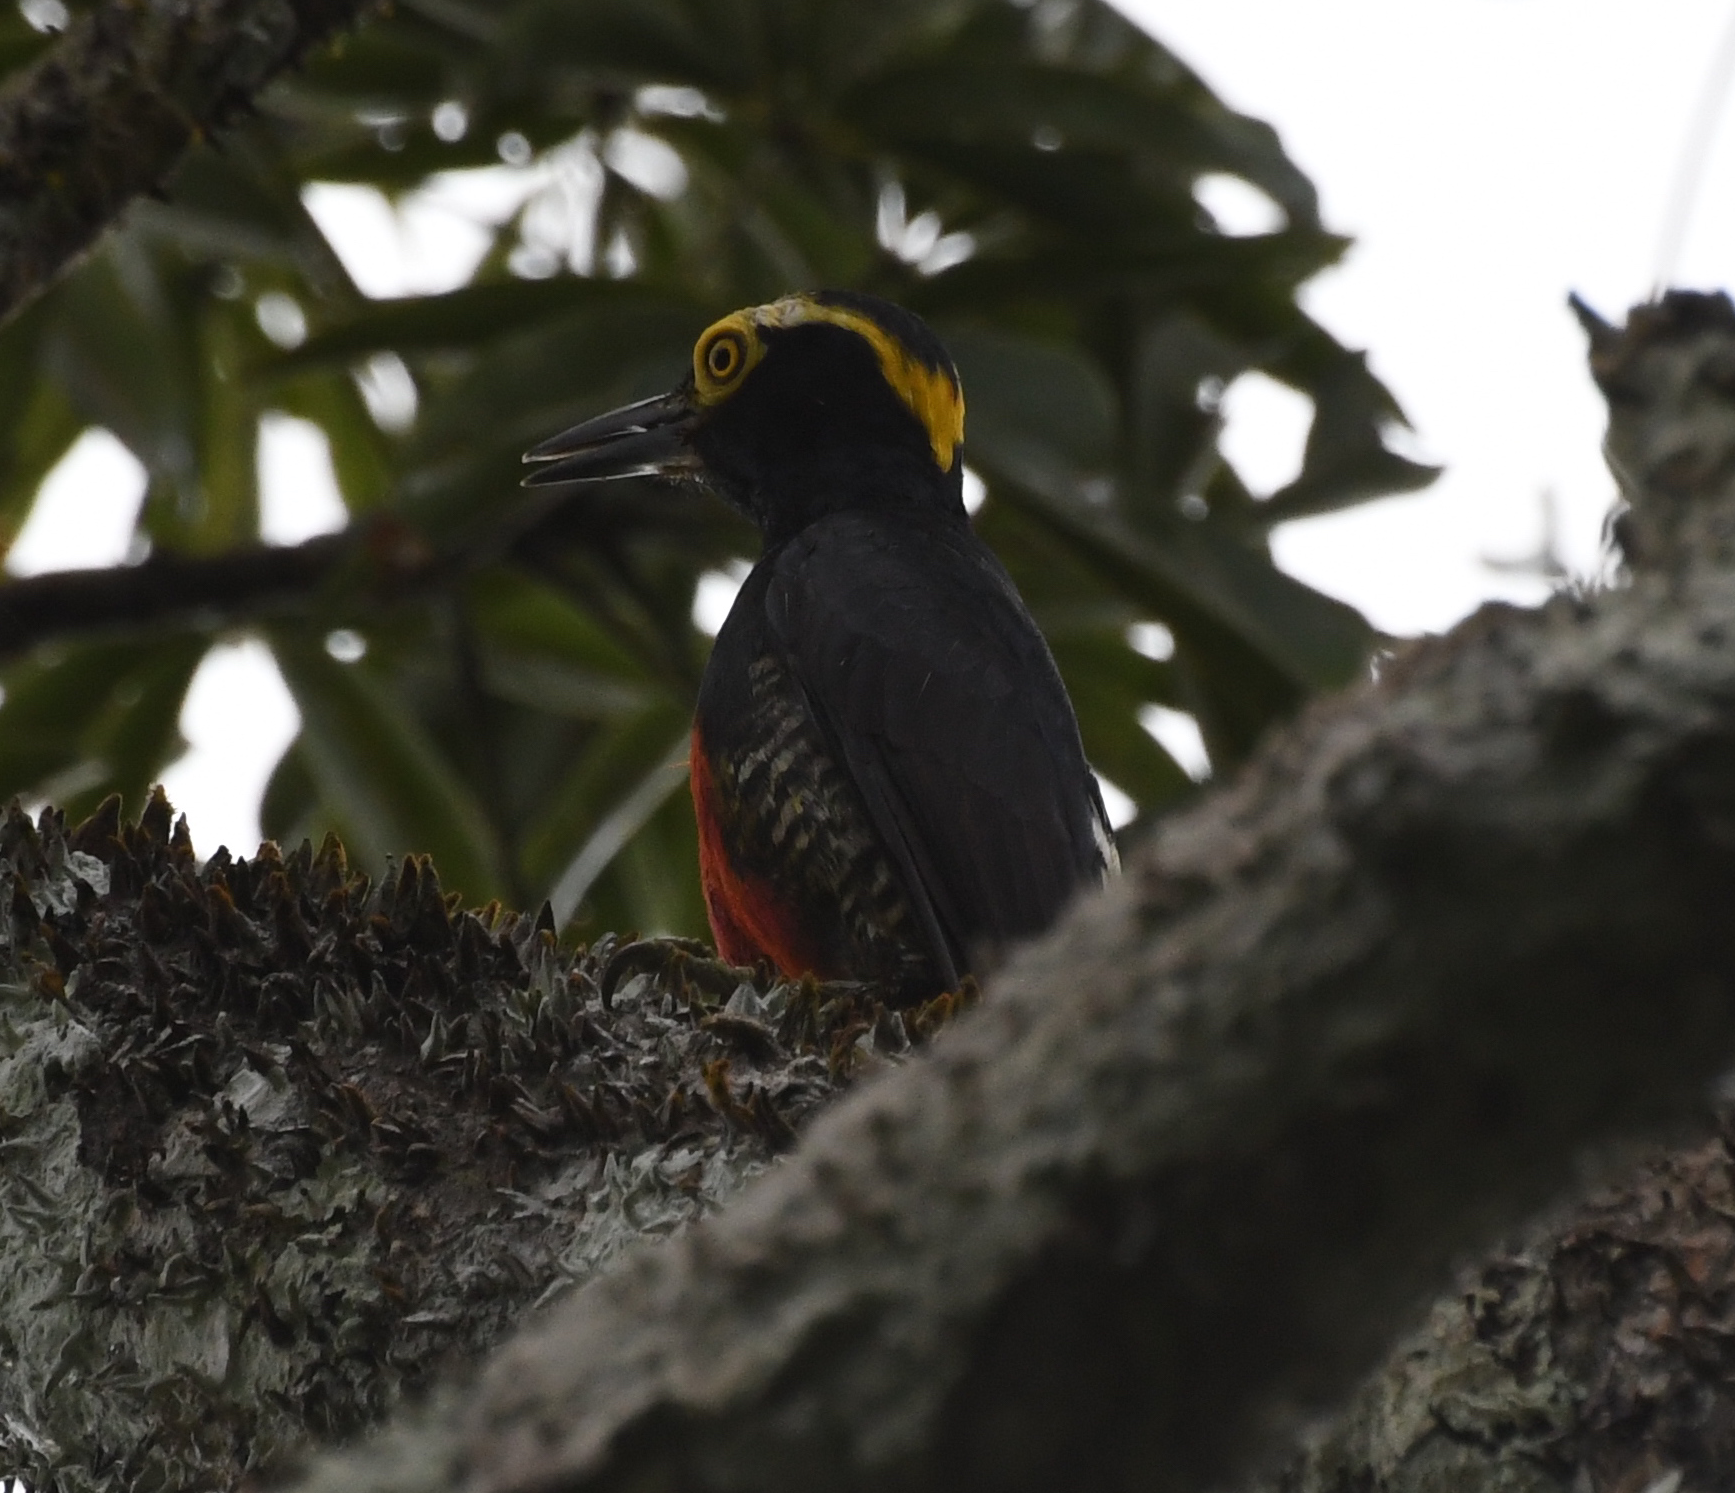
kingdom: Animalia
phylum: Chordata
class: Aves
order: Piciformes
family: Picidae
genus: Melanerpes
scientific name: Melanerpes cruentatus
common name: Yellow-tufted woodpecker
